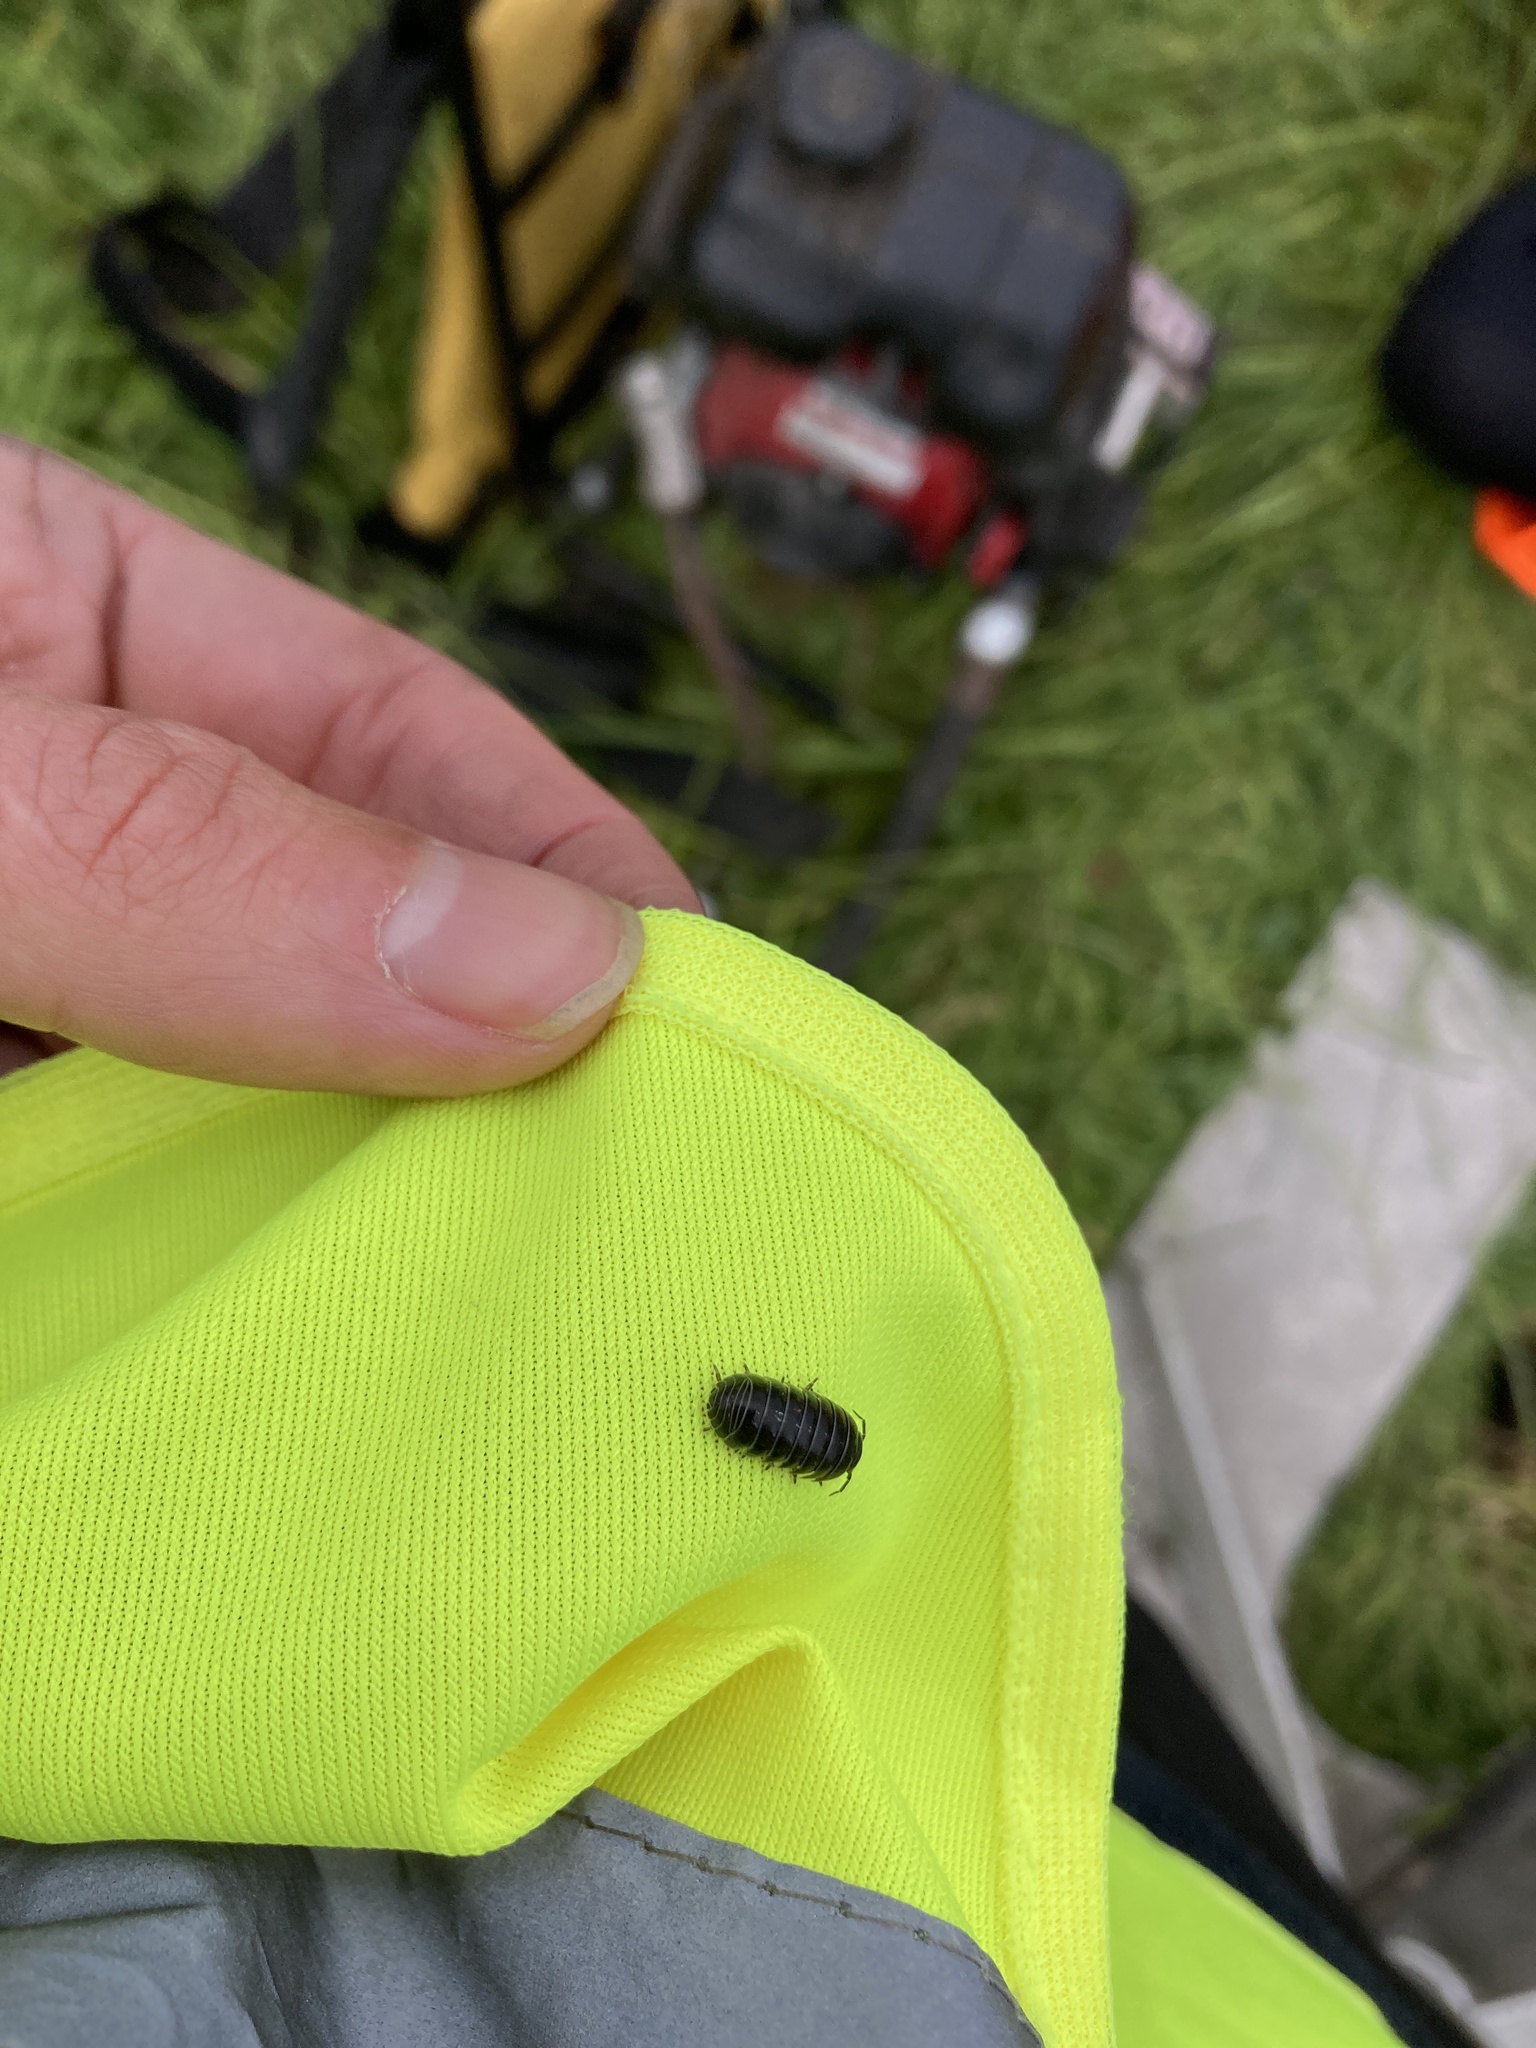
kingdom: Animalia
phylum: Arthropoda
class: Malacostraca
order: Isopoda
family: Armadillidiidae
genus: Armadillidium
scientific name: Armadillidium vulgare
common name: Common pill woodlouse
